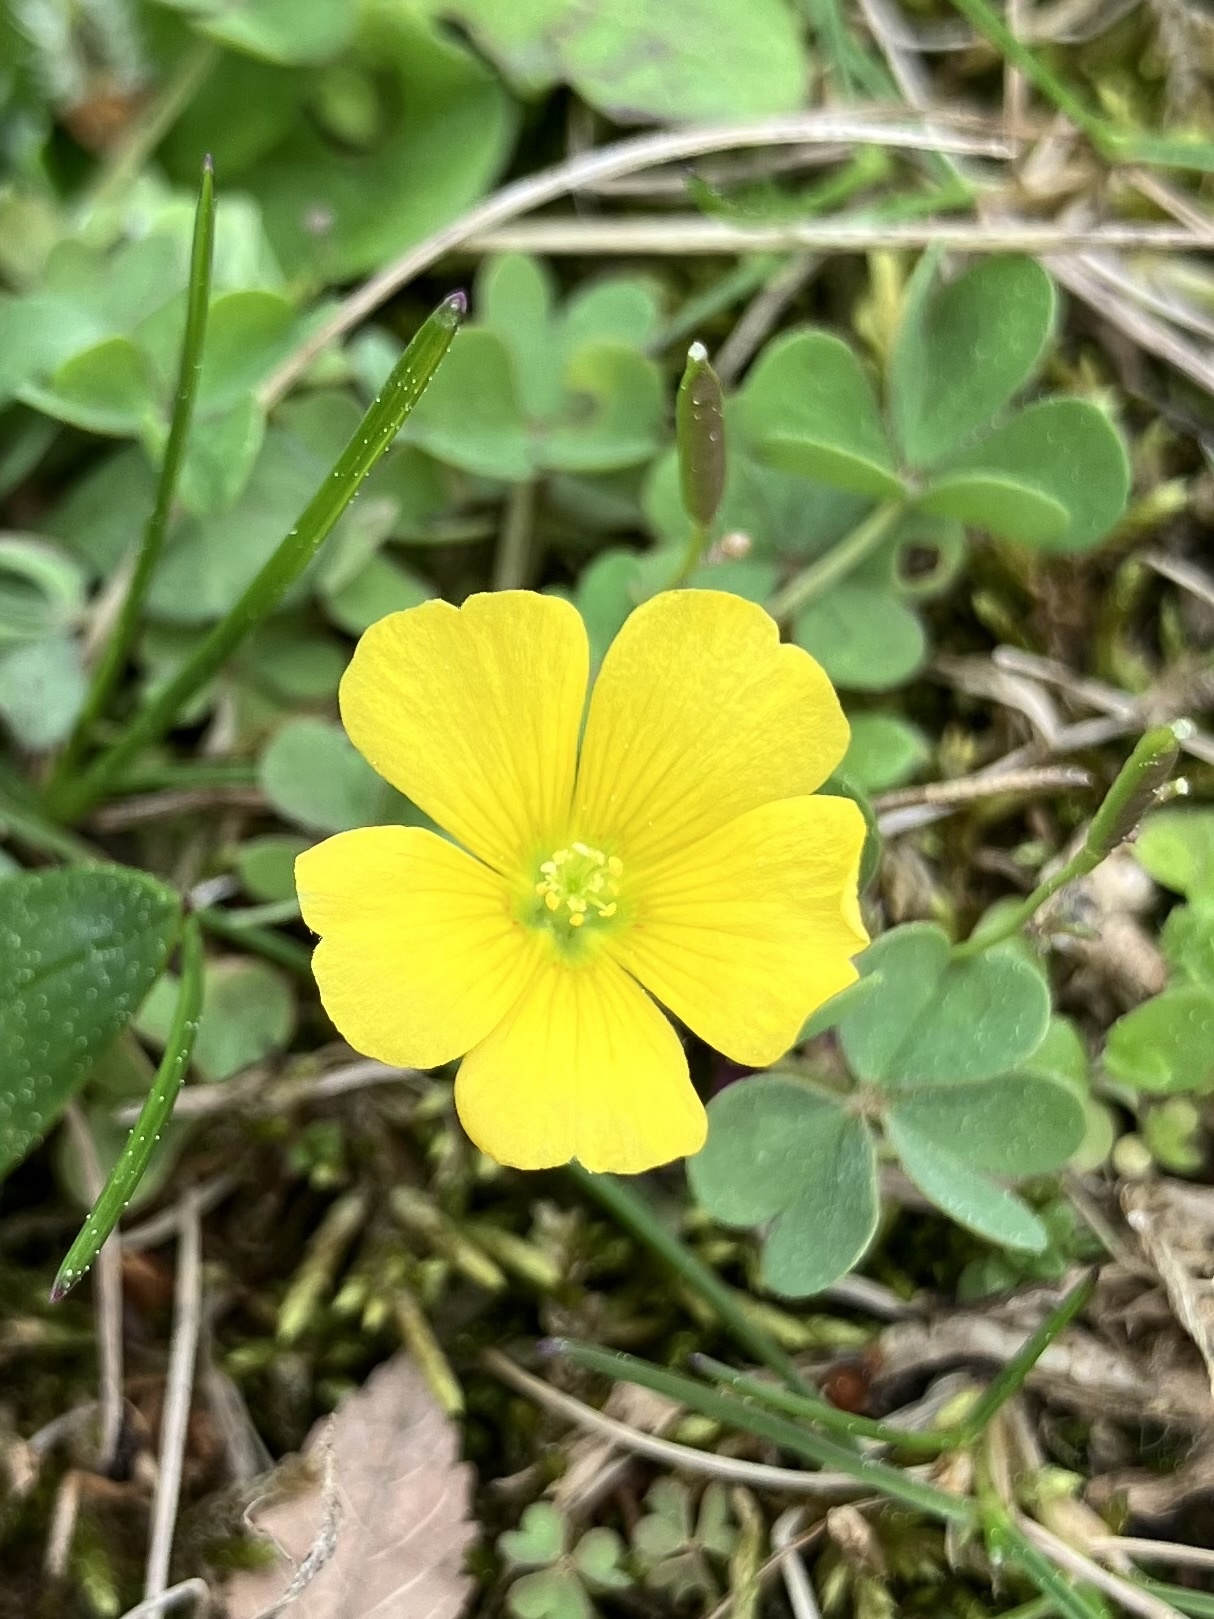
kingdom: Plantae
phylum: Tracheophyta
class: Magnoliopsida
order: Oxalidales
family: Oxalidaceae
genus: Oxalis
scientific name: Oxalis corniculata
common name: Procumbent yellow-sorrel
